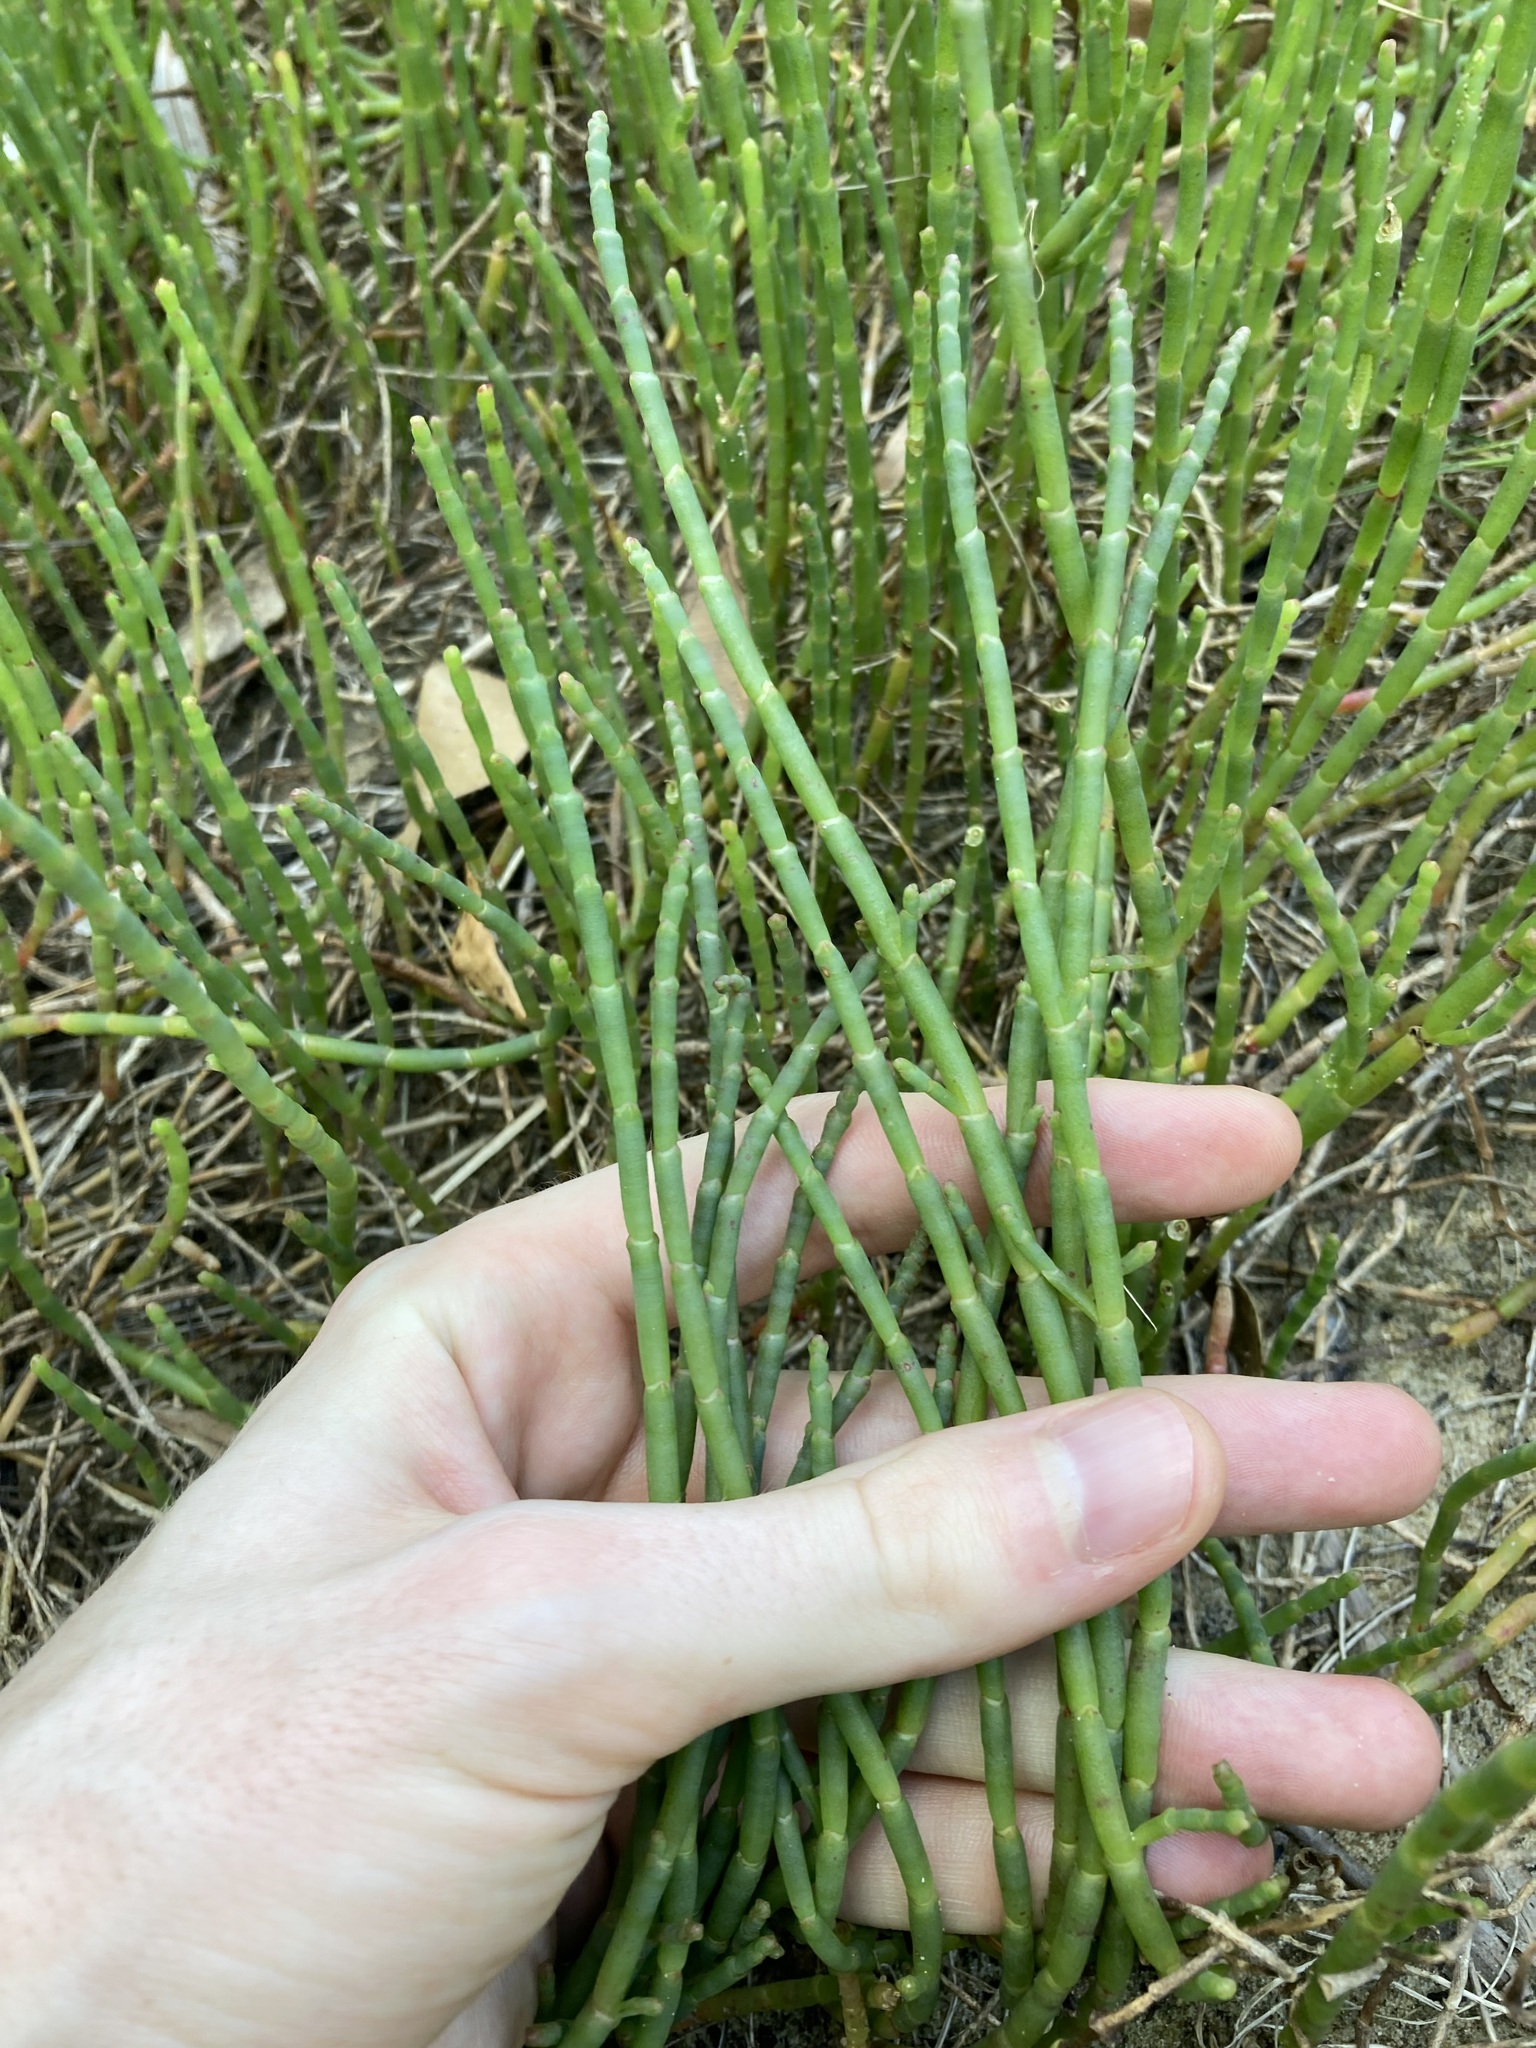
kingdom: Plantae
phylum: Tracheophyta
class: Magnoliopsida
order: Caryophyllales
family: Amaranthaceae
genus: Salicornia
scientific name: Salicornia quinqueflora
